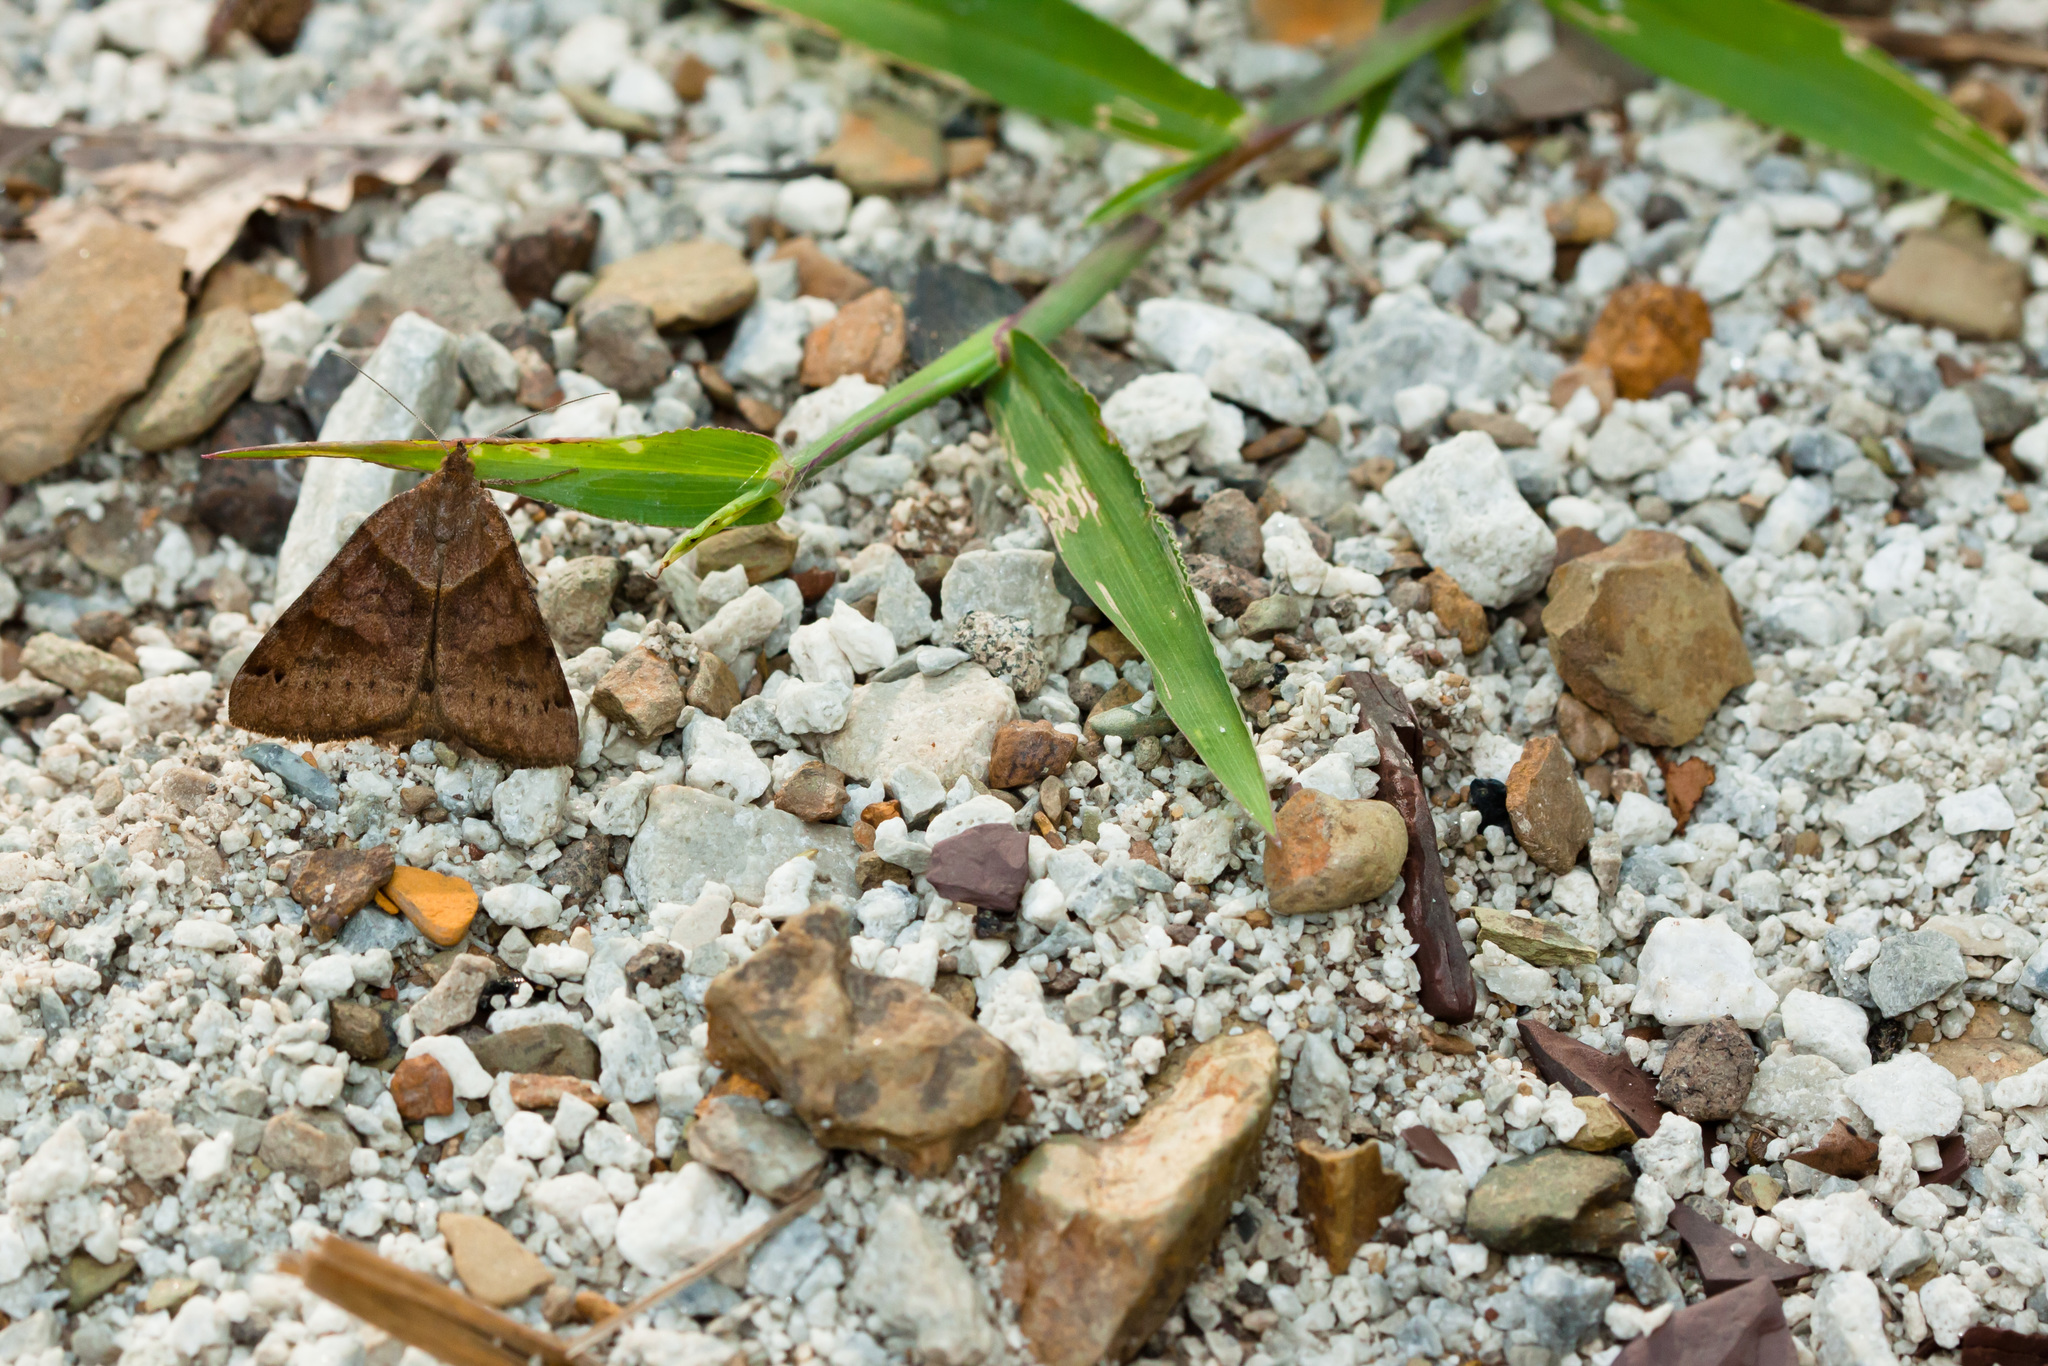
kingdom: Animalia
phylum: Arthropoda
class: Insecta
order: Lepidoptera
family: Erebidae
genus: Caenurgina
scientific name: Caenurgina crassiuscula
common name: Double-barred
